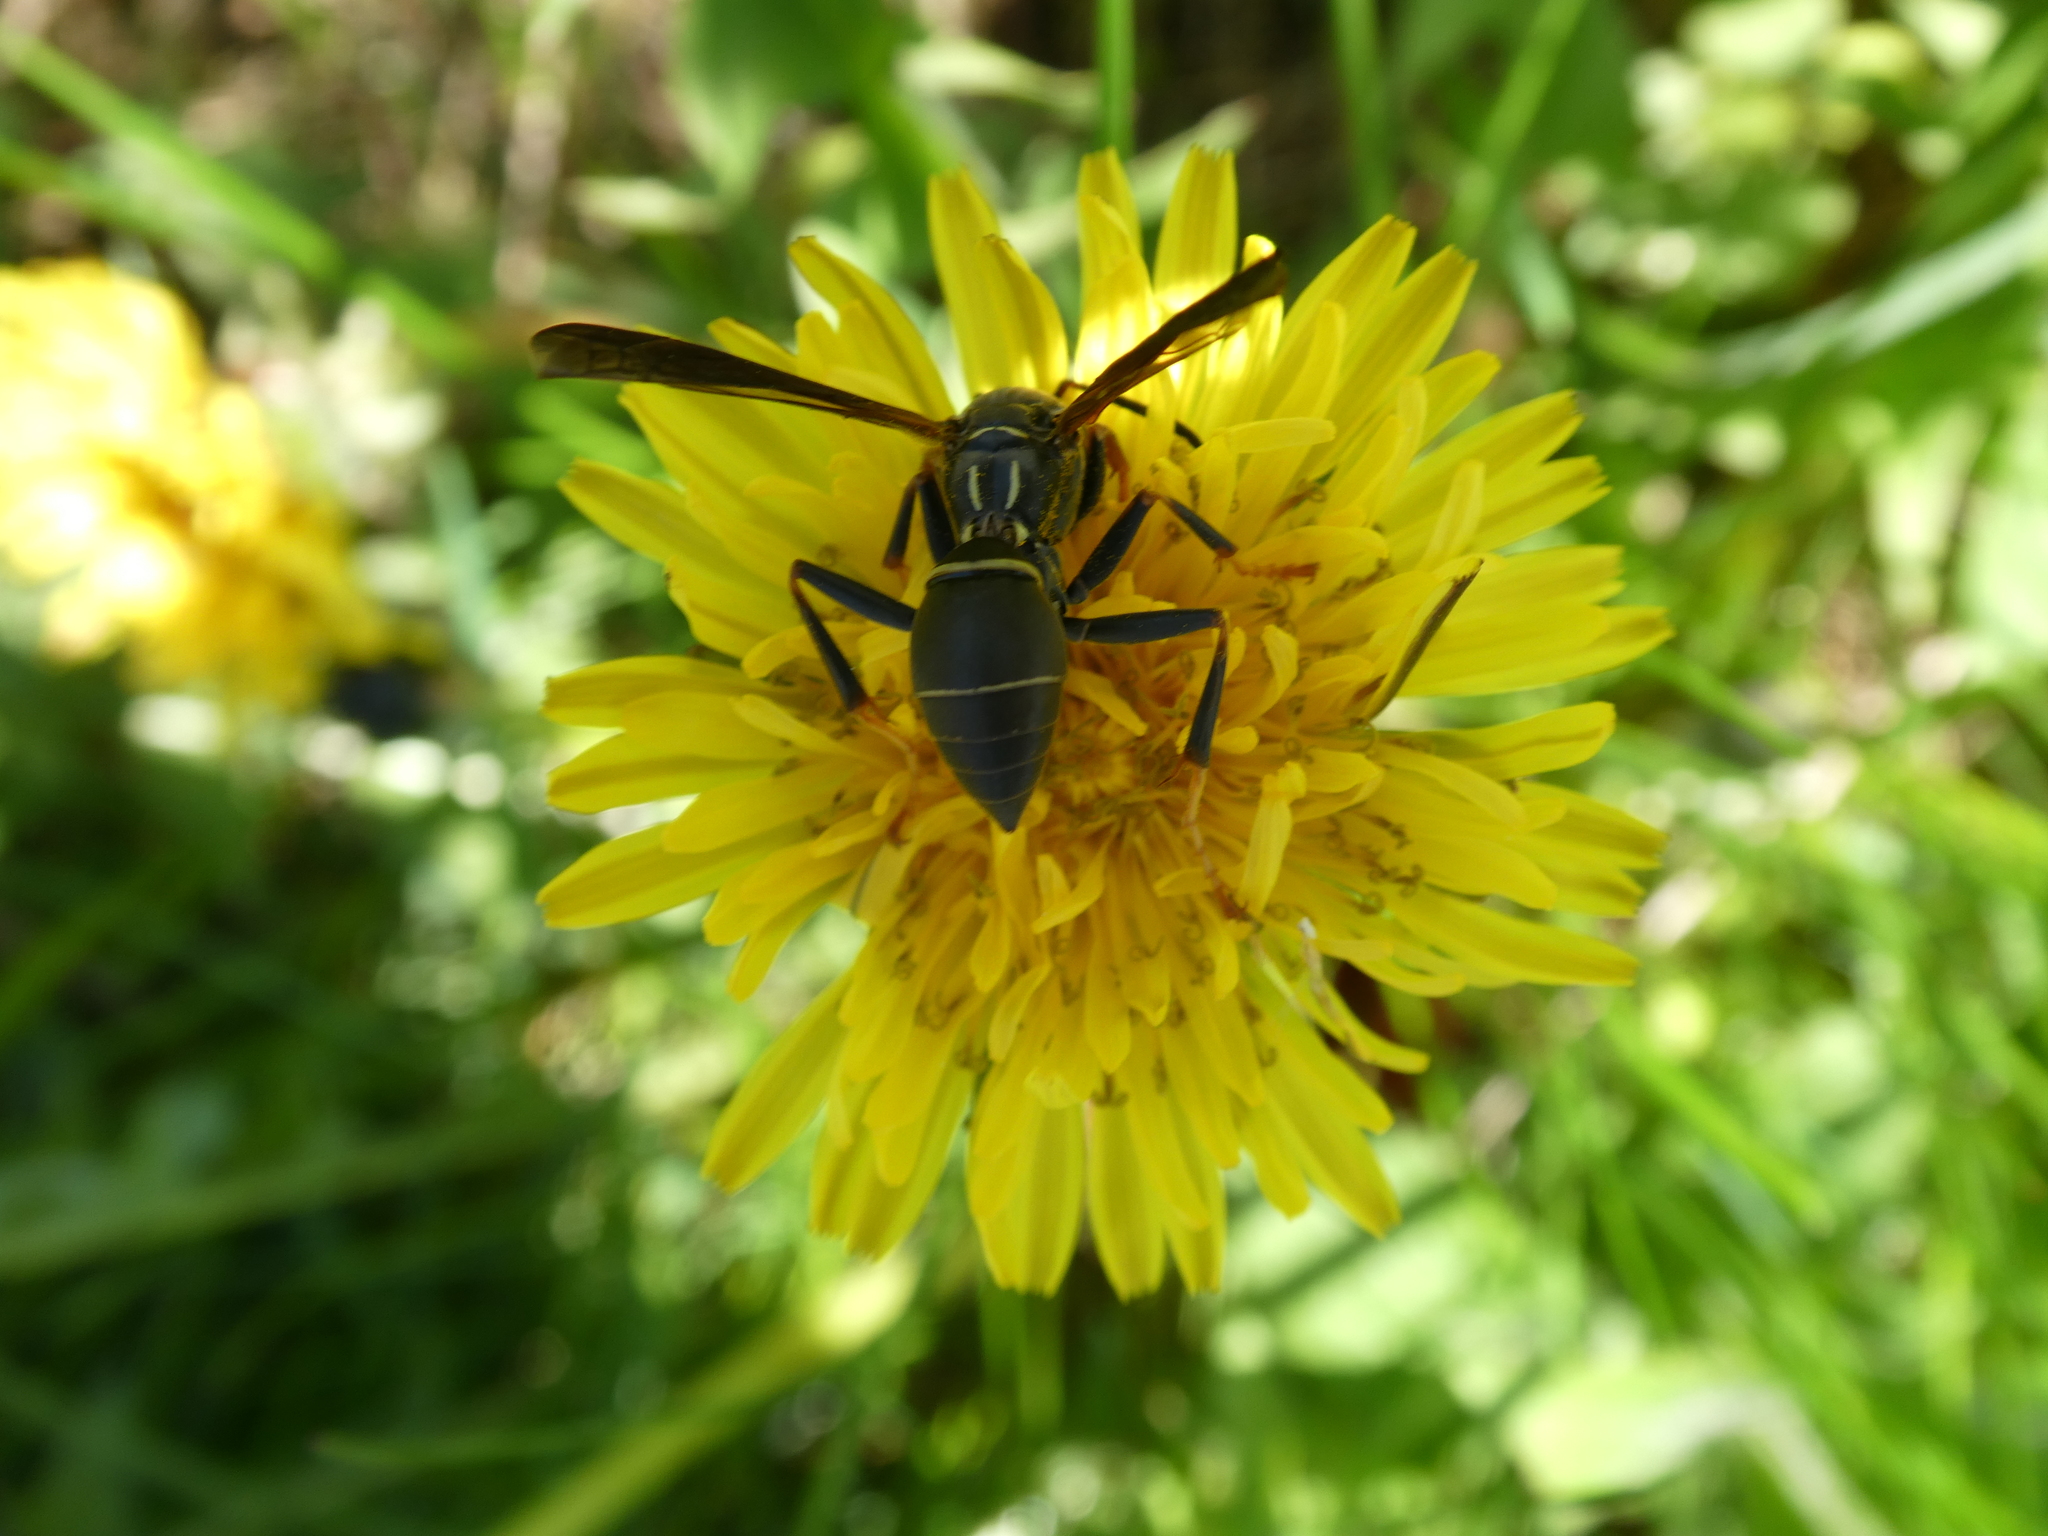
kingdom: Animalia
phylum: Arthropoda
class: Insecta
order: Hymenoptera
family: Eumenidae
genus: Polistes
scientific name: Polistes fuscatus
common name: Dark paper wasp
